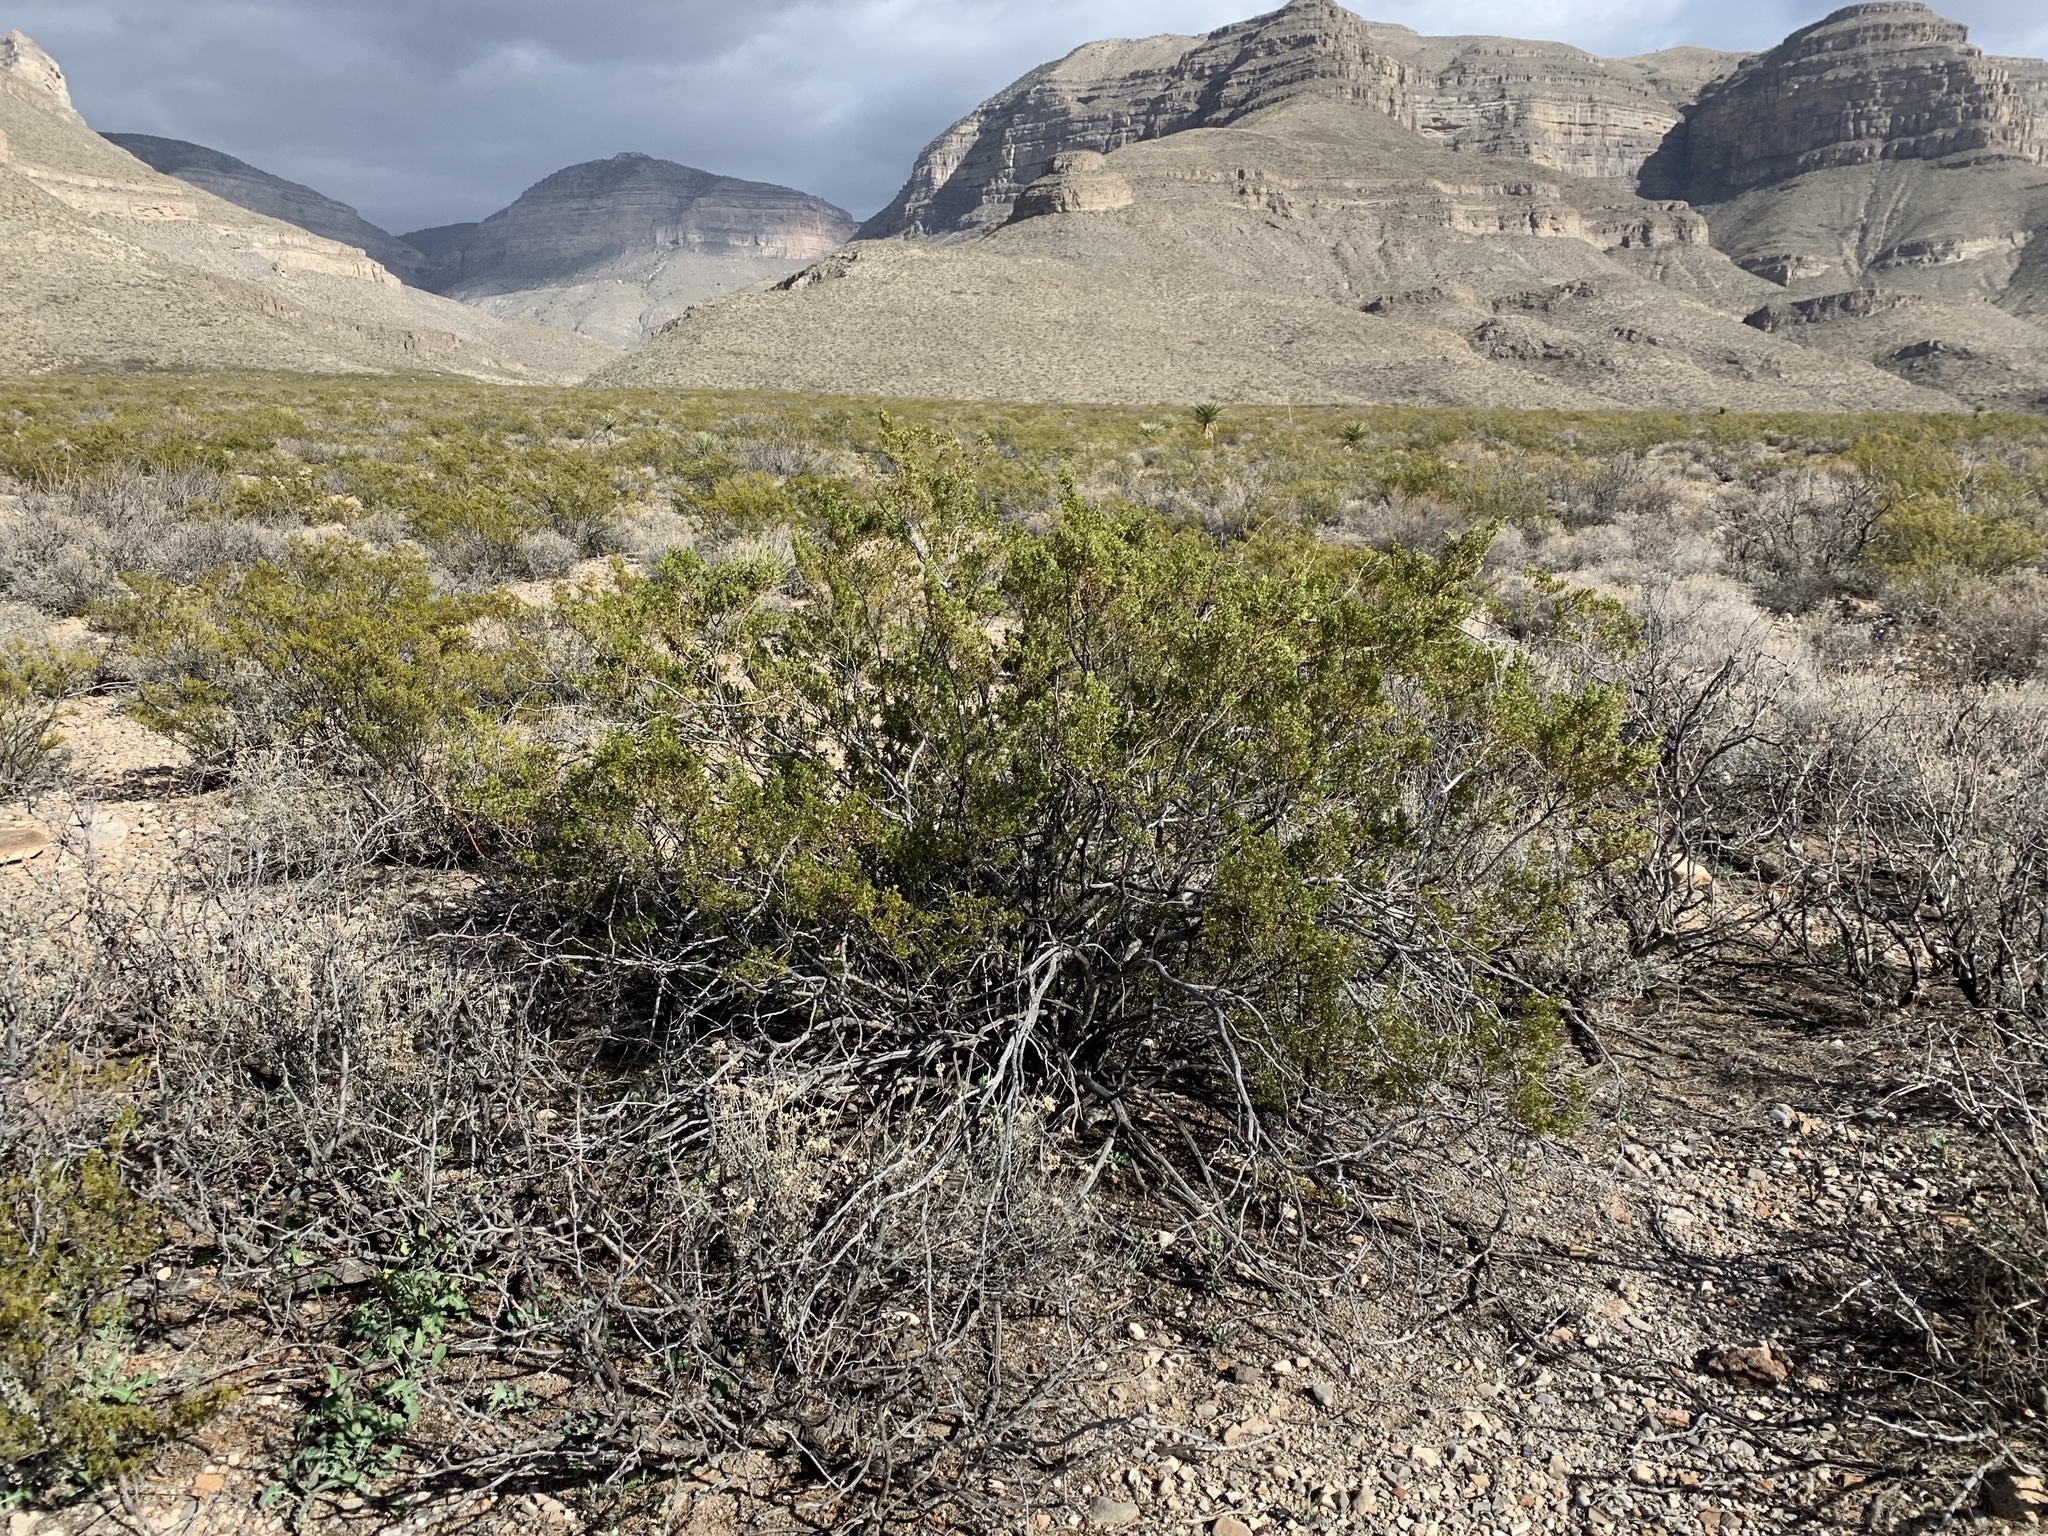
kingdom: Plantae
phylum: Tracheophyta
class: Magnoliopsida
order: Zygophyllales
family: Zygophyllaceae
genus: Larrea
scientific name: Larrea tridentata
